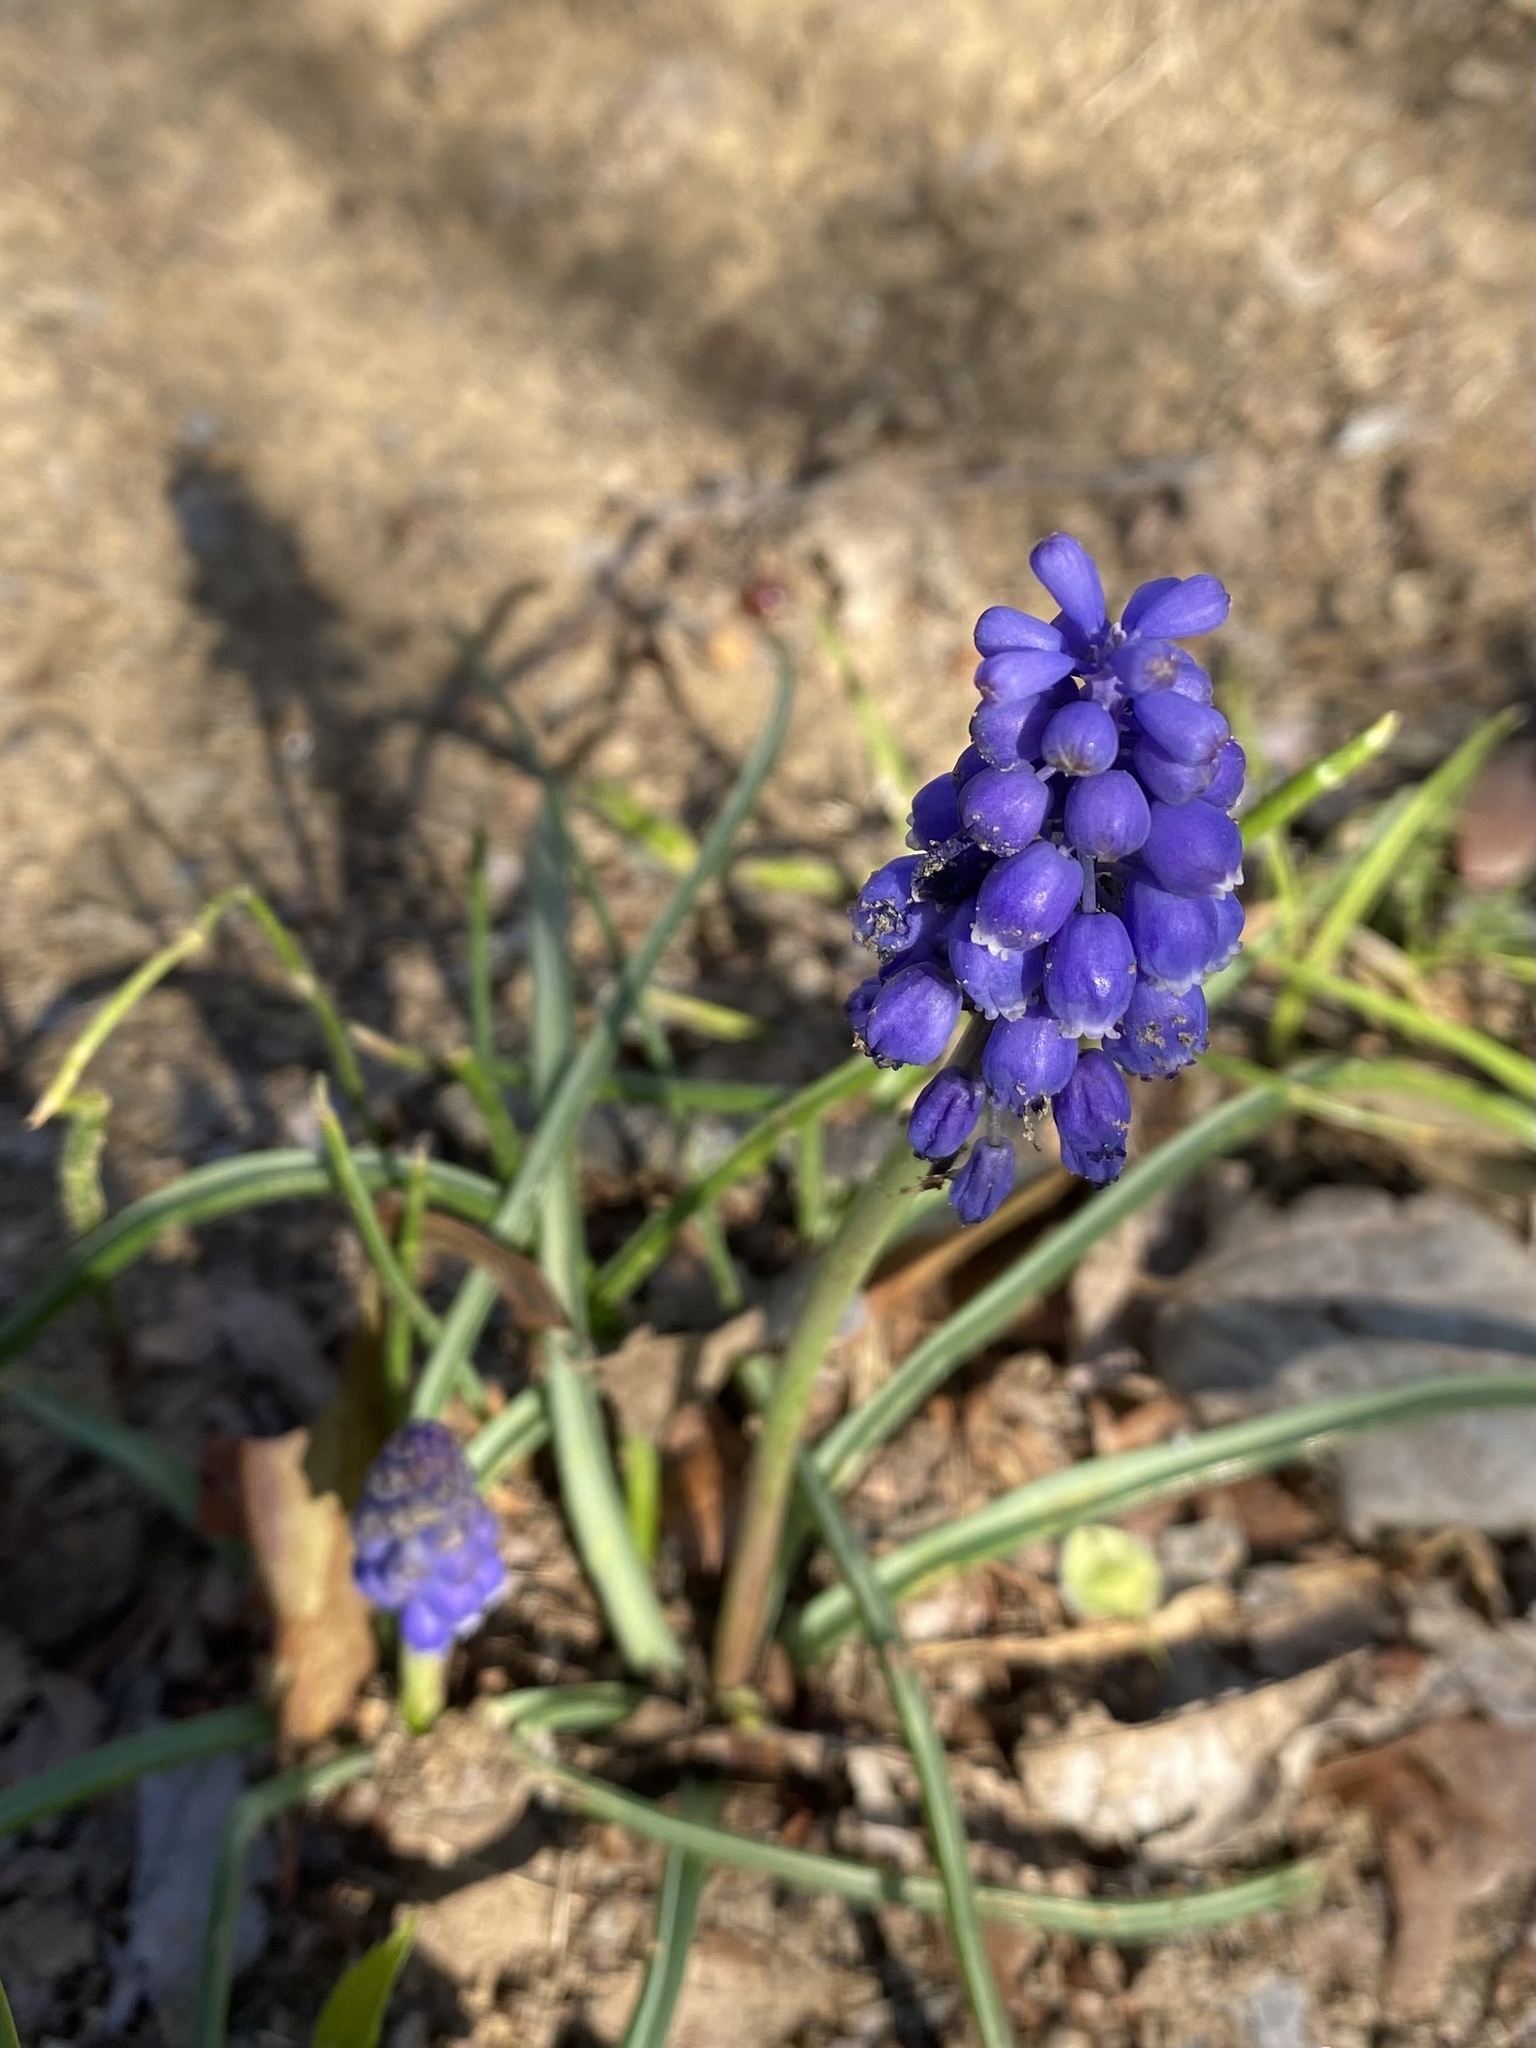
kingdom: Plantae
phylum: Tracheophyta
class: Liliopsida
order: Asparagales
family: Asparagaceae
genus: Muscari
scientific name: Muscari neglectum
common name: Grape-hyacinth
